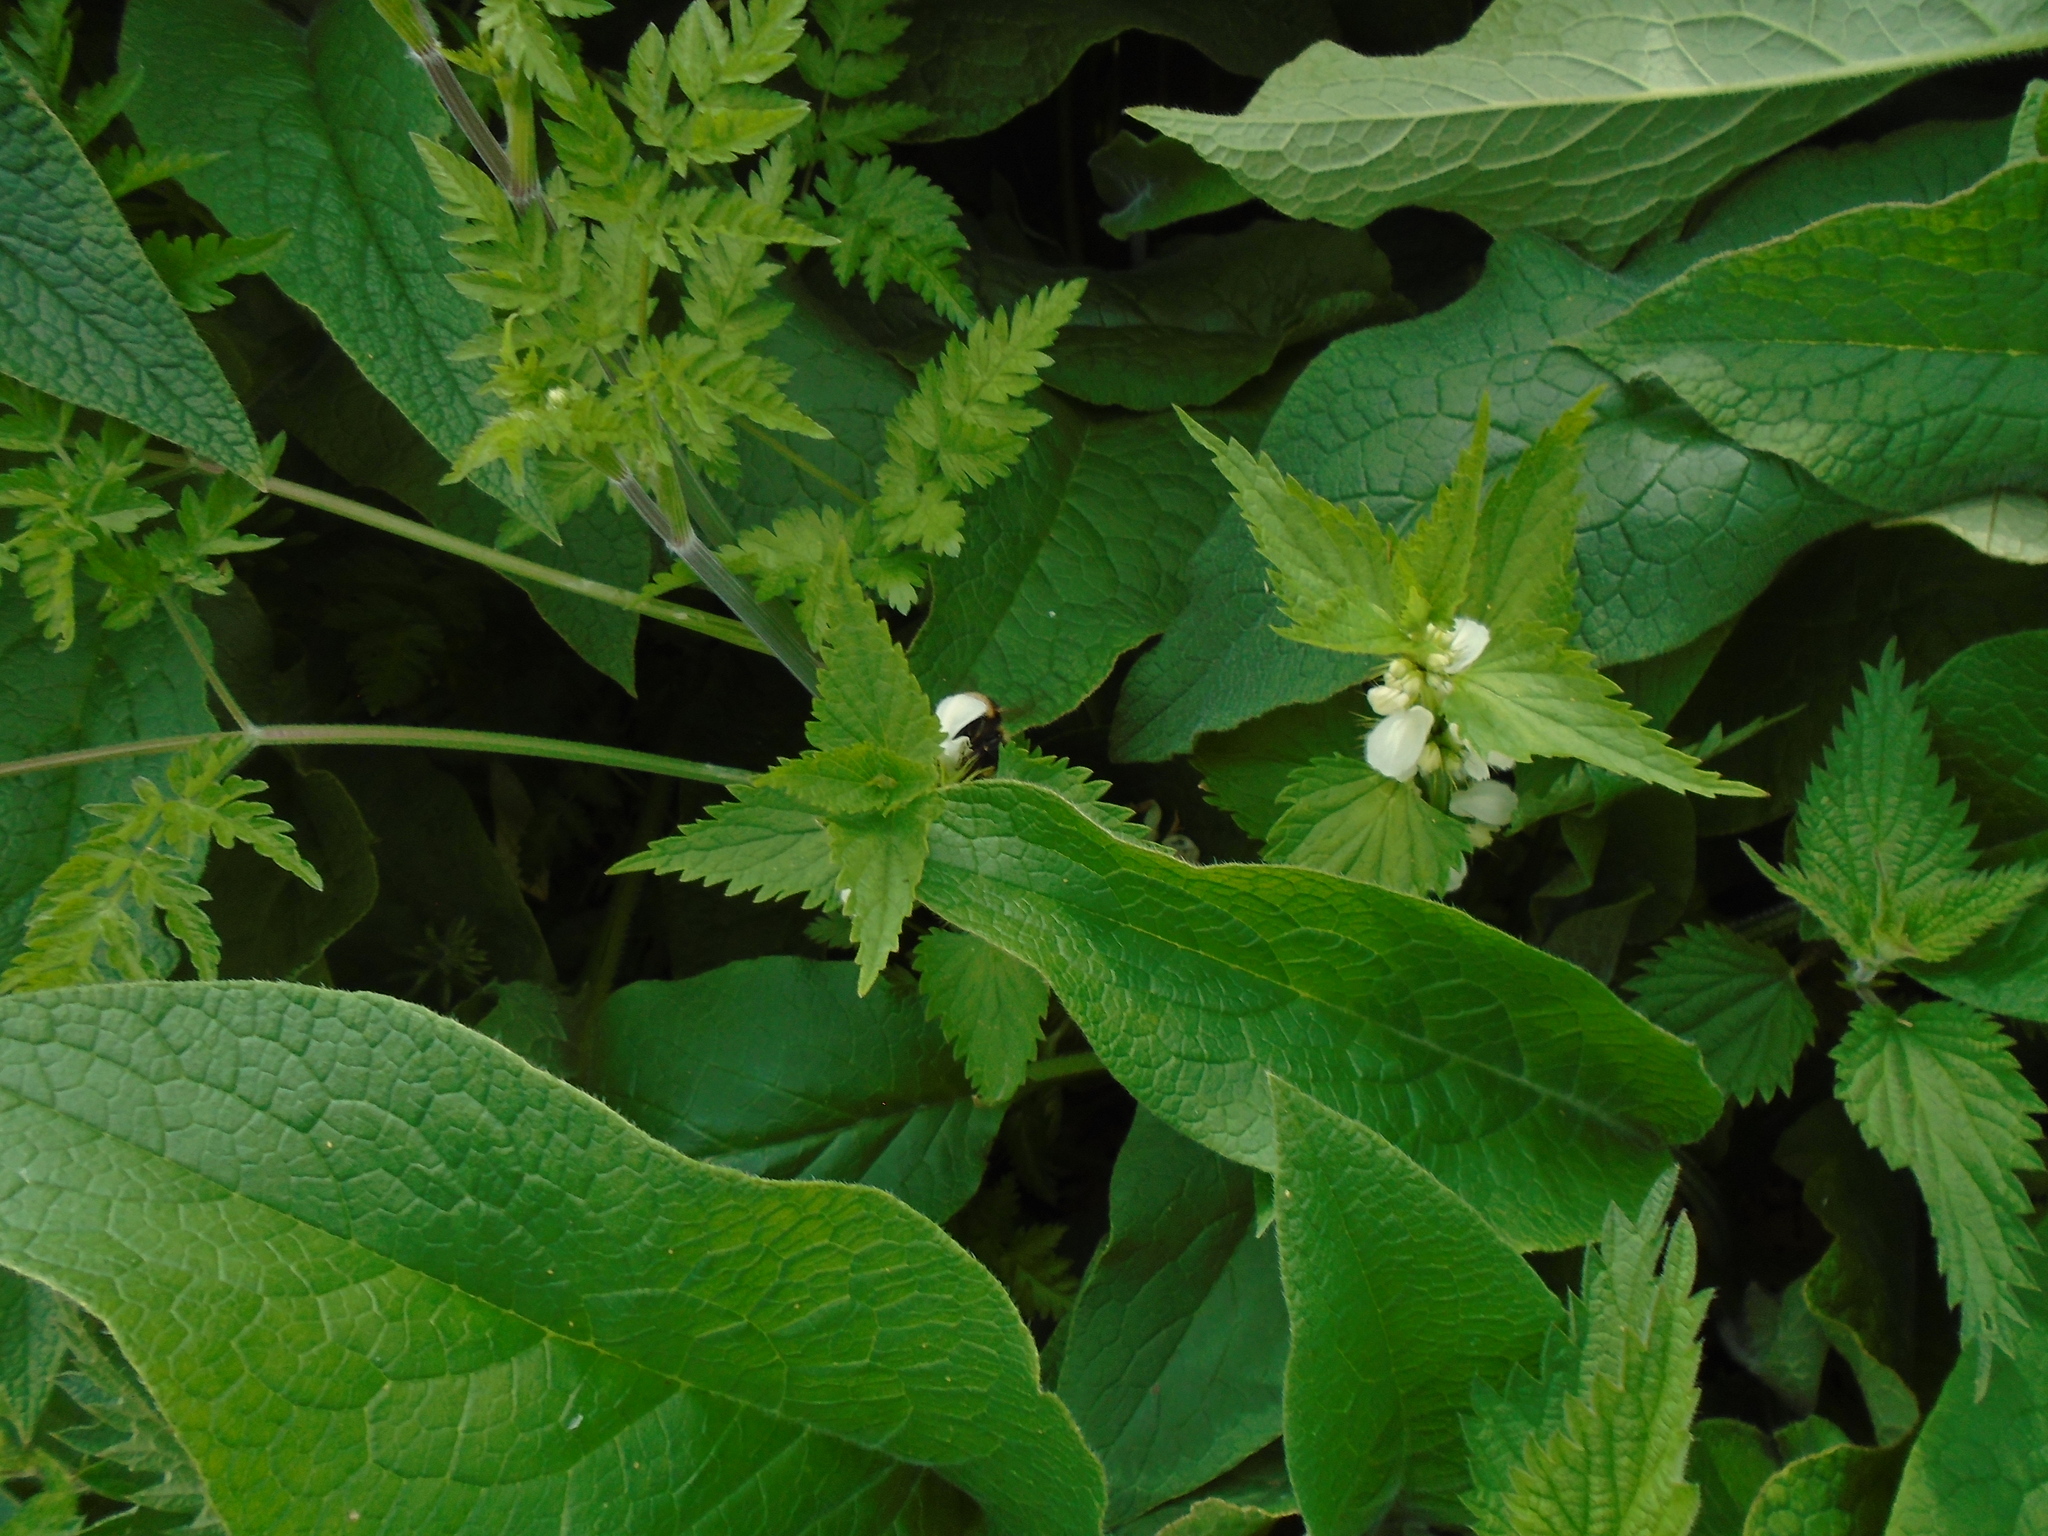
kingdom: Plantae
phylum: Tracheophyta
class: Magnoliopsida
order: Lamiales
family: Lamiaceae
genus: Lamium
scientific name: Lamium album
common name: White dead-nettle
